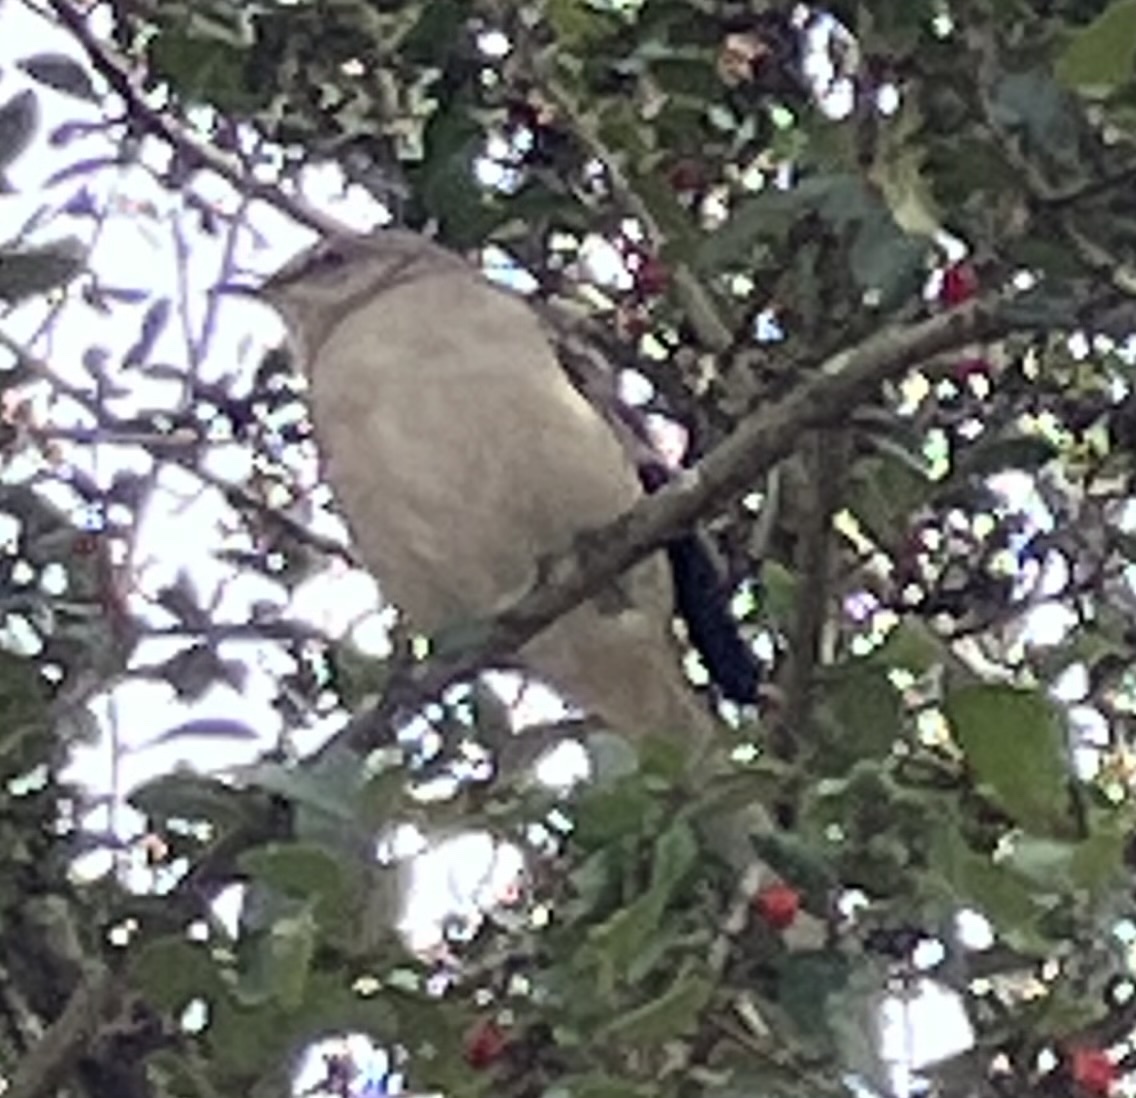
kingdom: Animalia
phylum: Chordata
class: Aves
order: Passeriformes
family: Mimidae
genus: Mimus
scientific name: Mimus polyglottos
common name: Northern mockingbird
